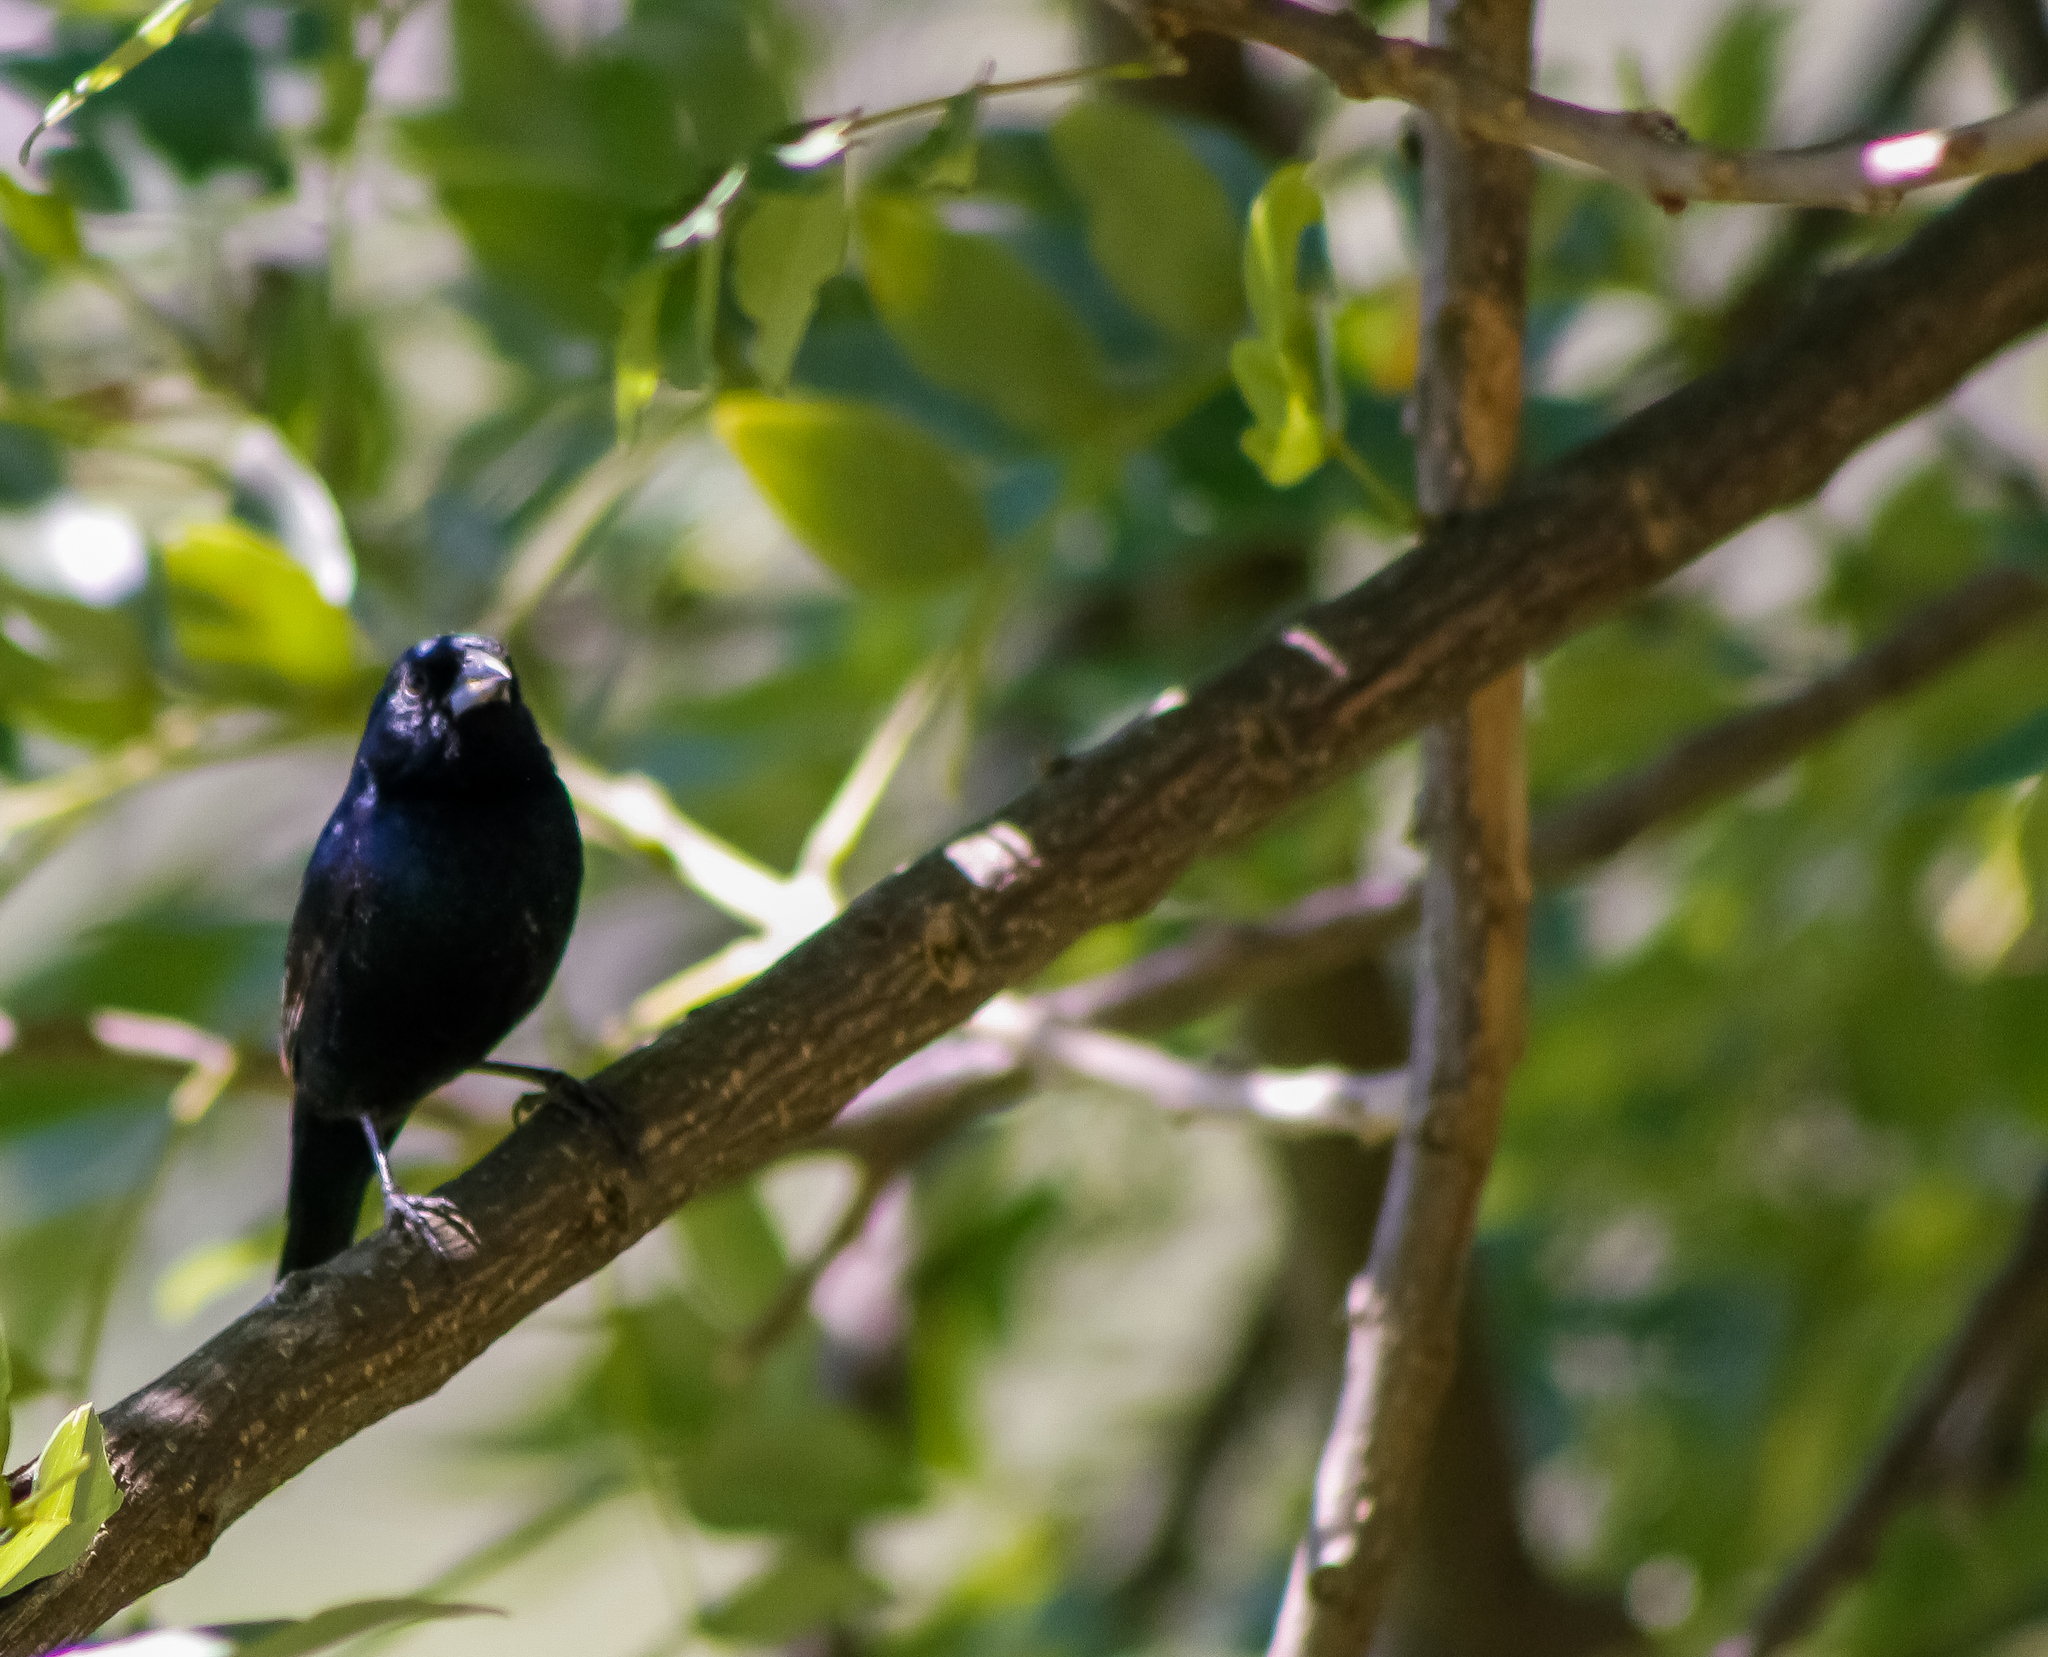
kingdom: Animalia
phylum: Chordata
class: Aves
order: Passeriformes
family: Thraupidae
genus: Volatinia
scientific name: Volatinia jacarina
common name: Blue-black grassquit
